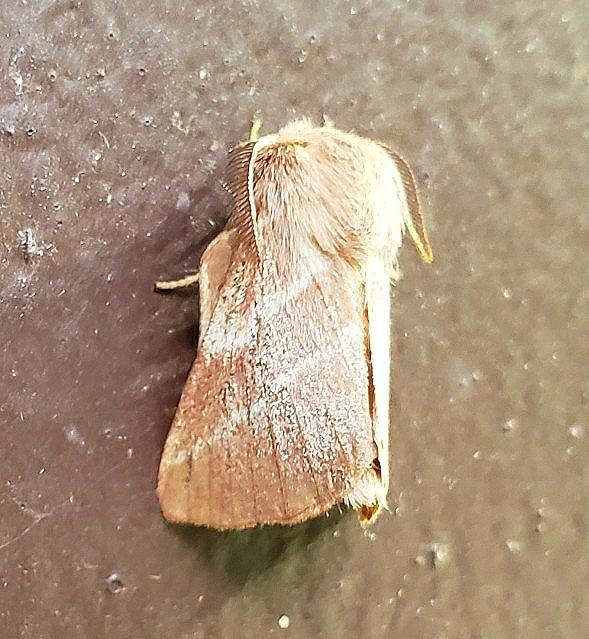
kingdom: Animalia
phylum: Arthropoda
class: Insecta
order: Lepidoptera
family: Lasiocampidae
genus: Malacosoma
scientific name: Malacosoma americana
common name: Eastern tent caterpillar moth
